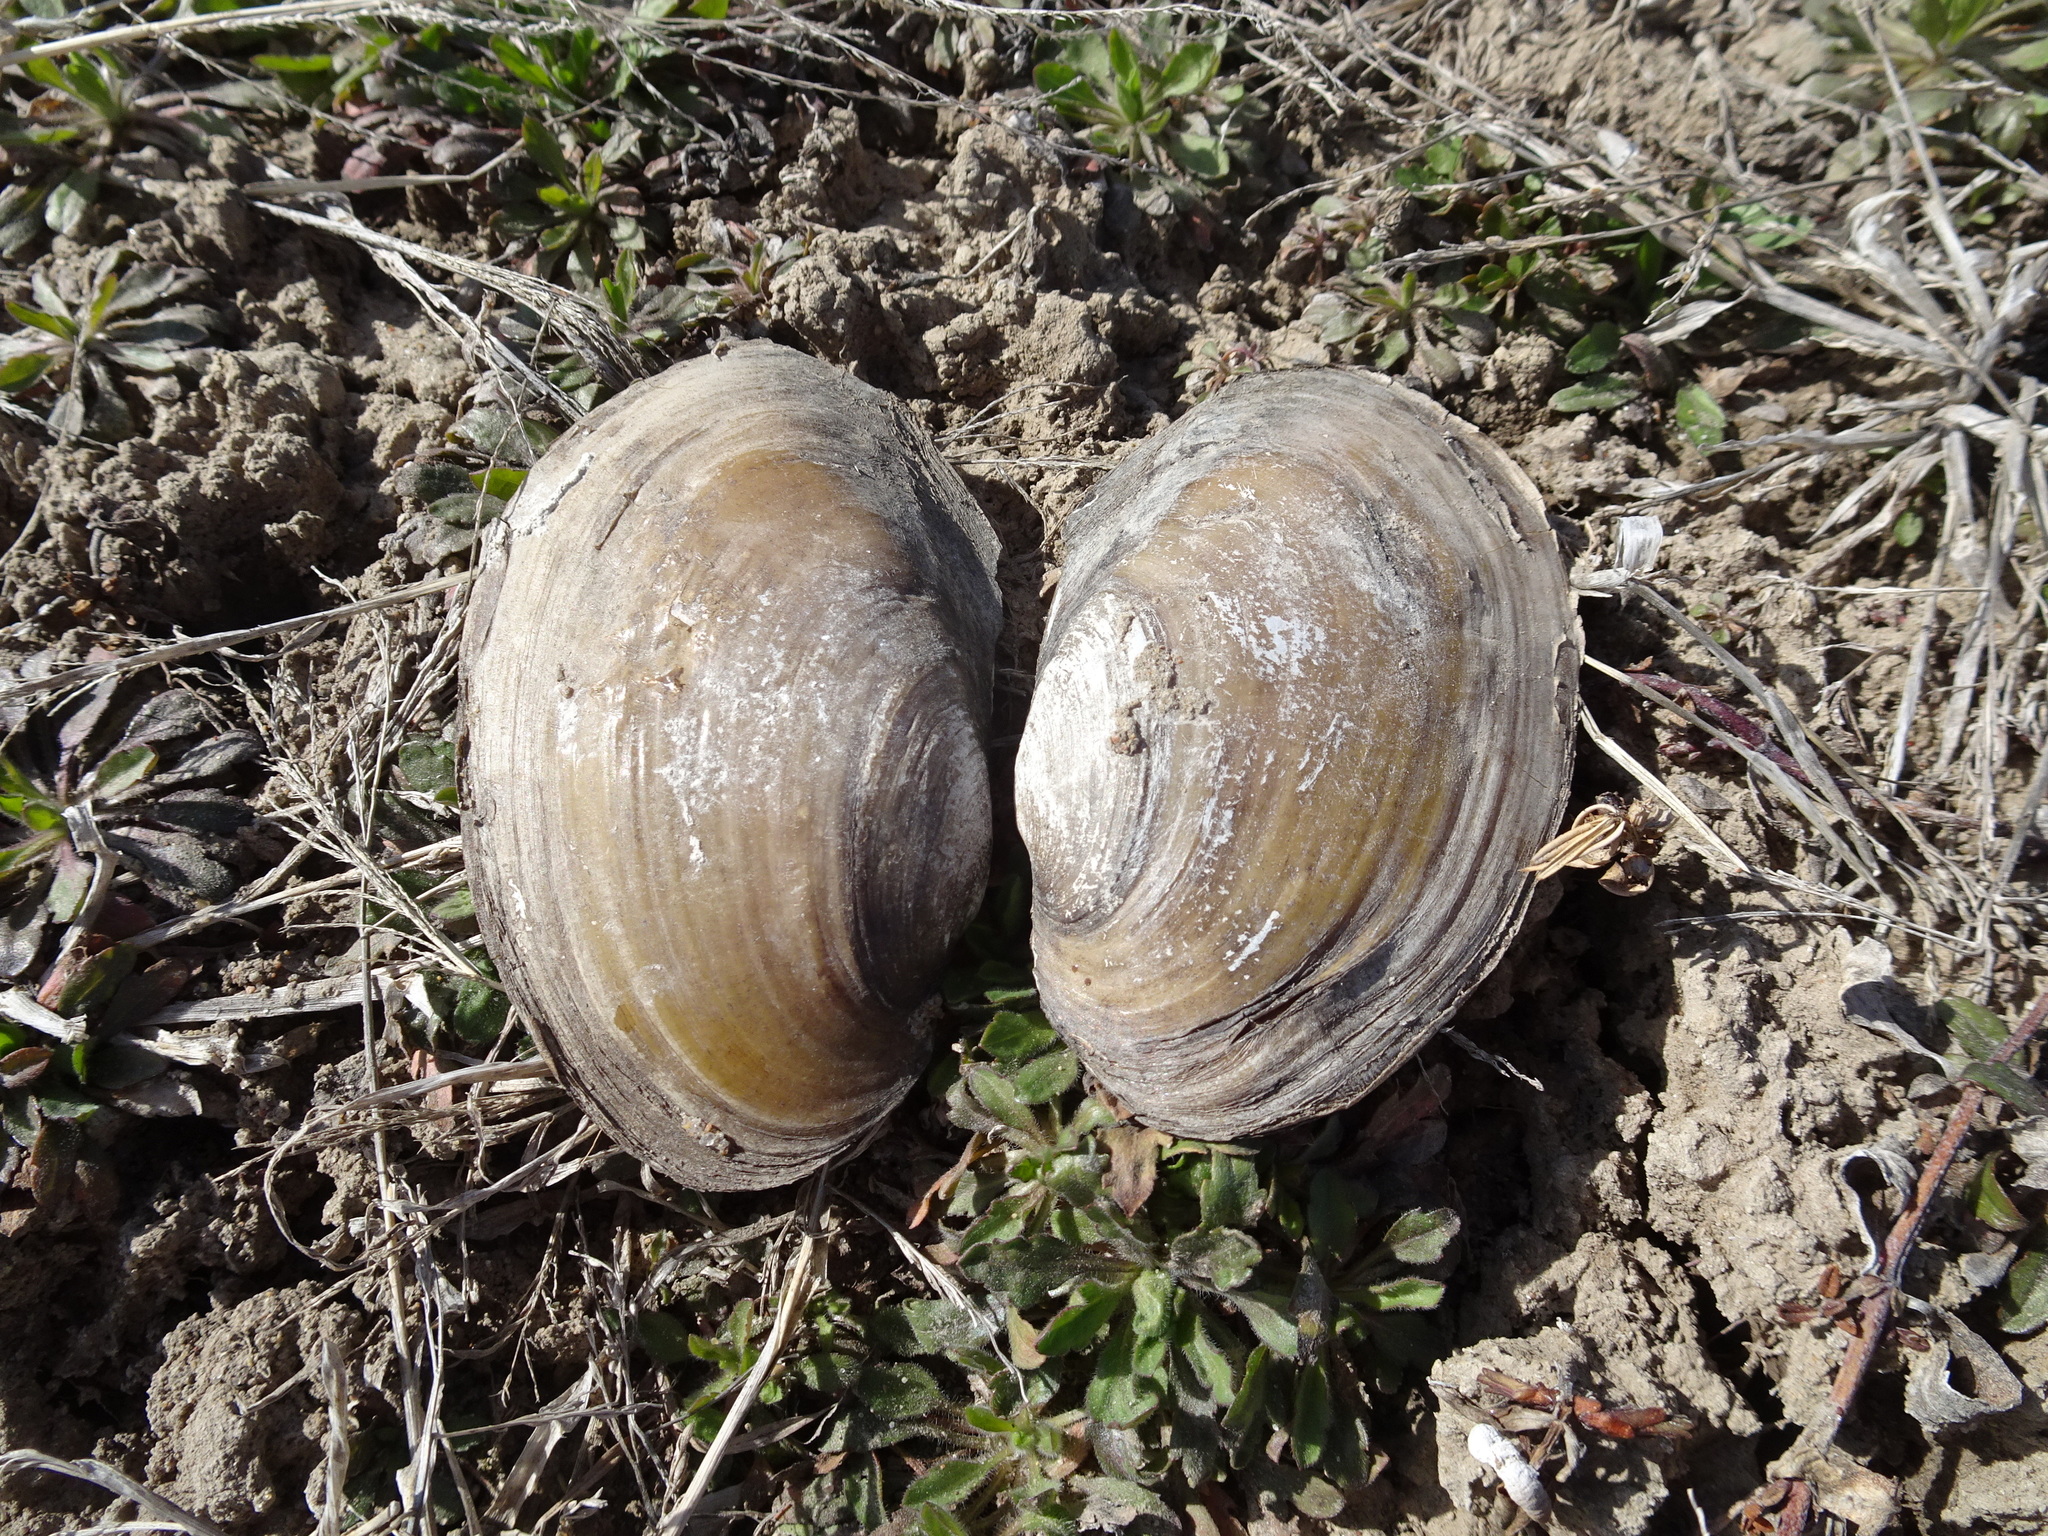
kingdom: Animalia
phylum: Mollusca
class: Bivalvia
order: Unionida
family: Unionidae
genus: Potamilus
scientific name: Potamilus fragilis
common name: Fragile papershell
